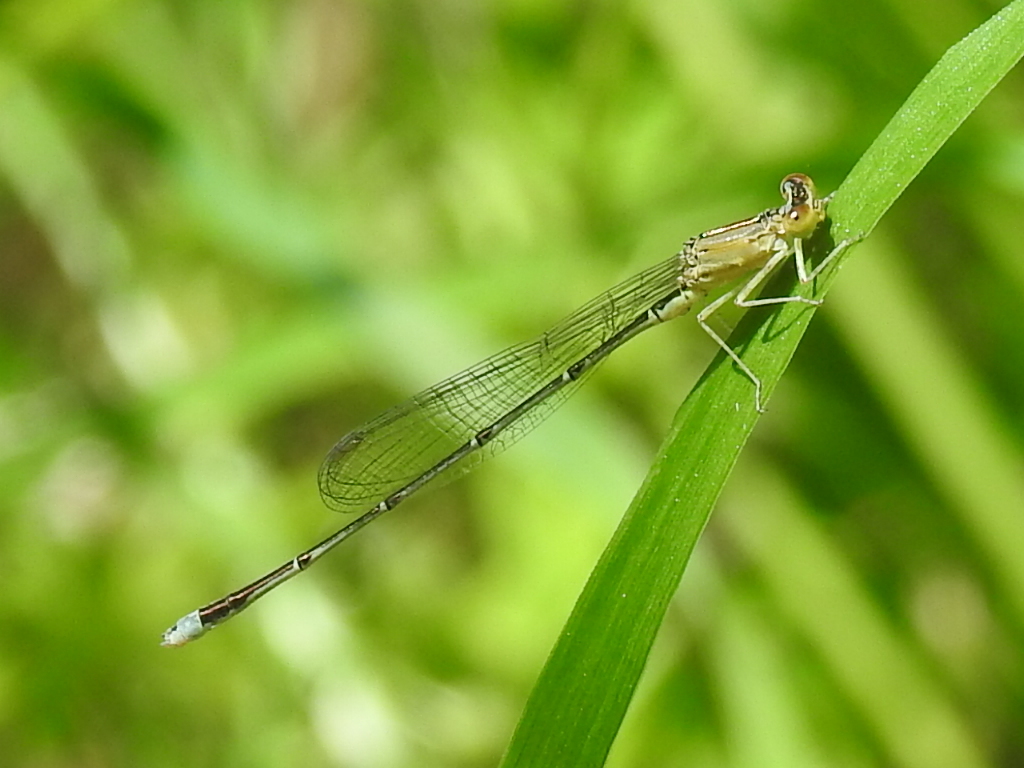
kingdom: Animalia
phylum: Arthropoda
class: Insecta
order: Odonata
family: Coenagrionidae
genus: Enallagma
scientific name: Enallagma vesperum
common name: Vesper bluet
